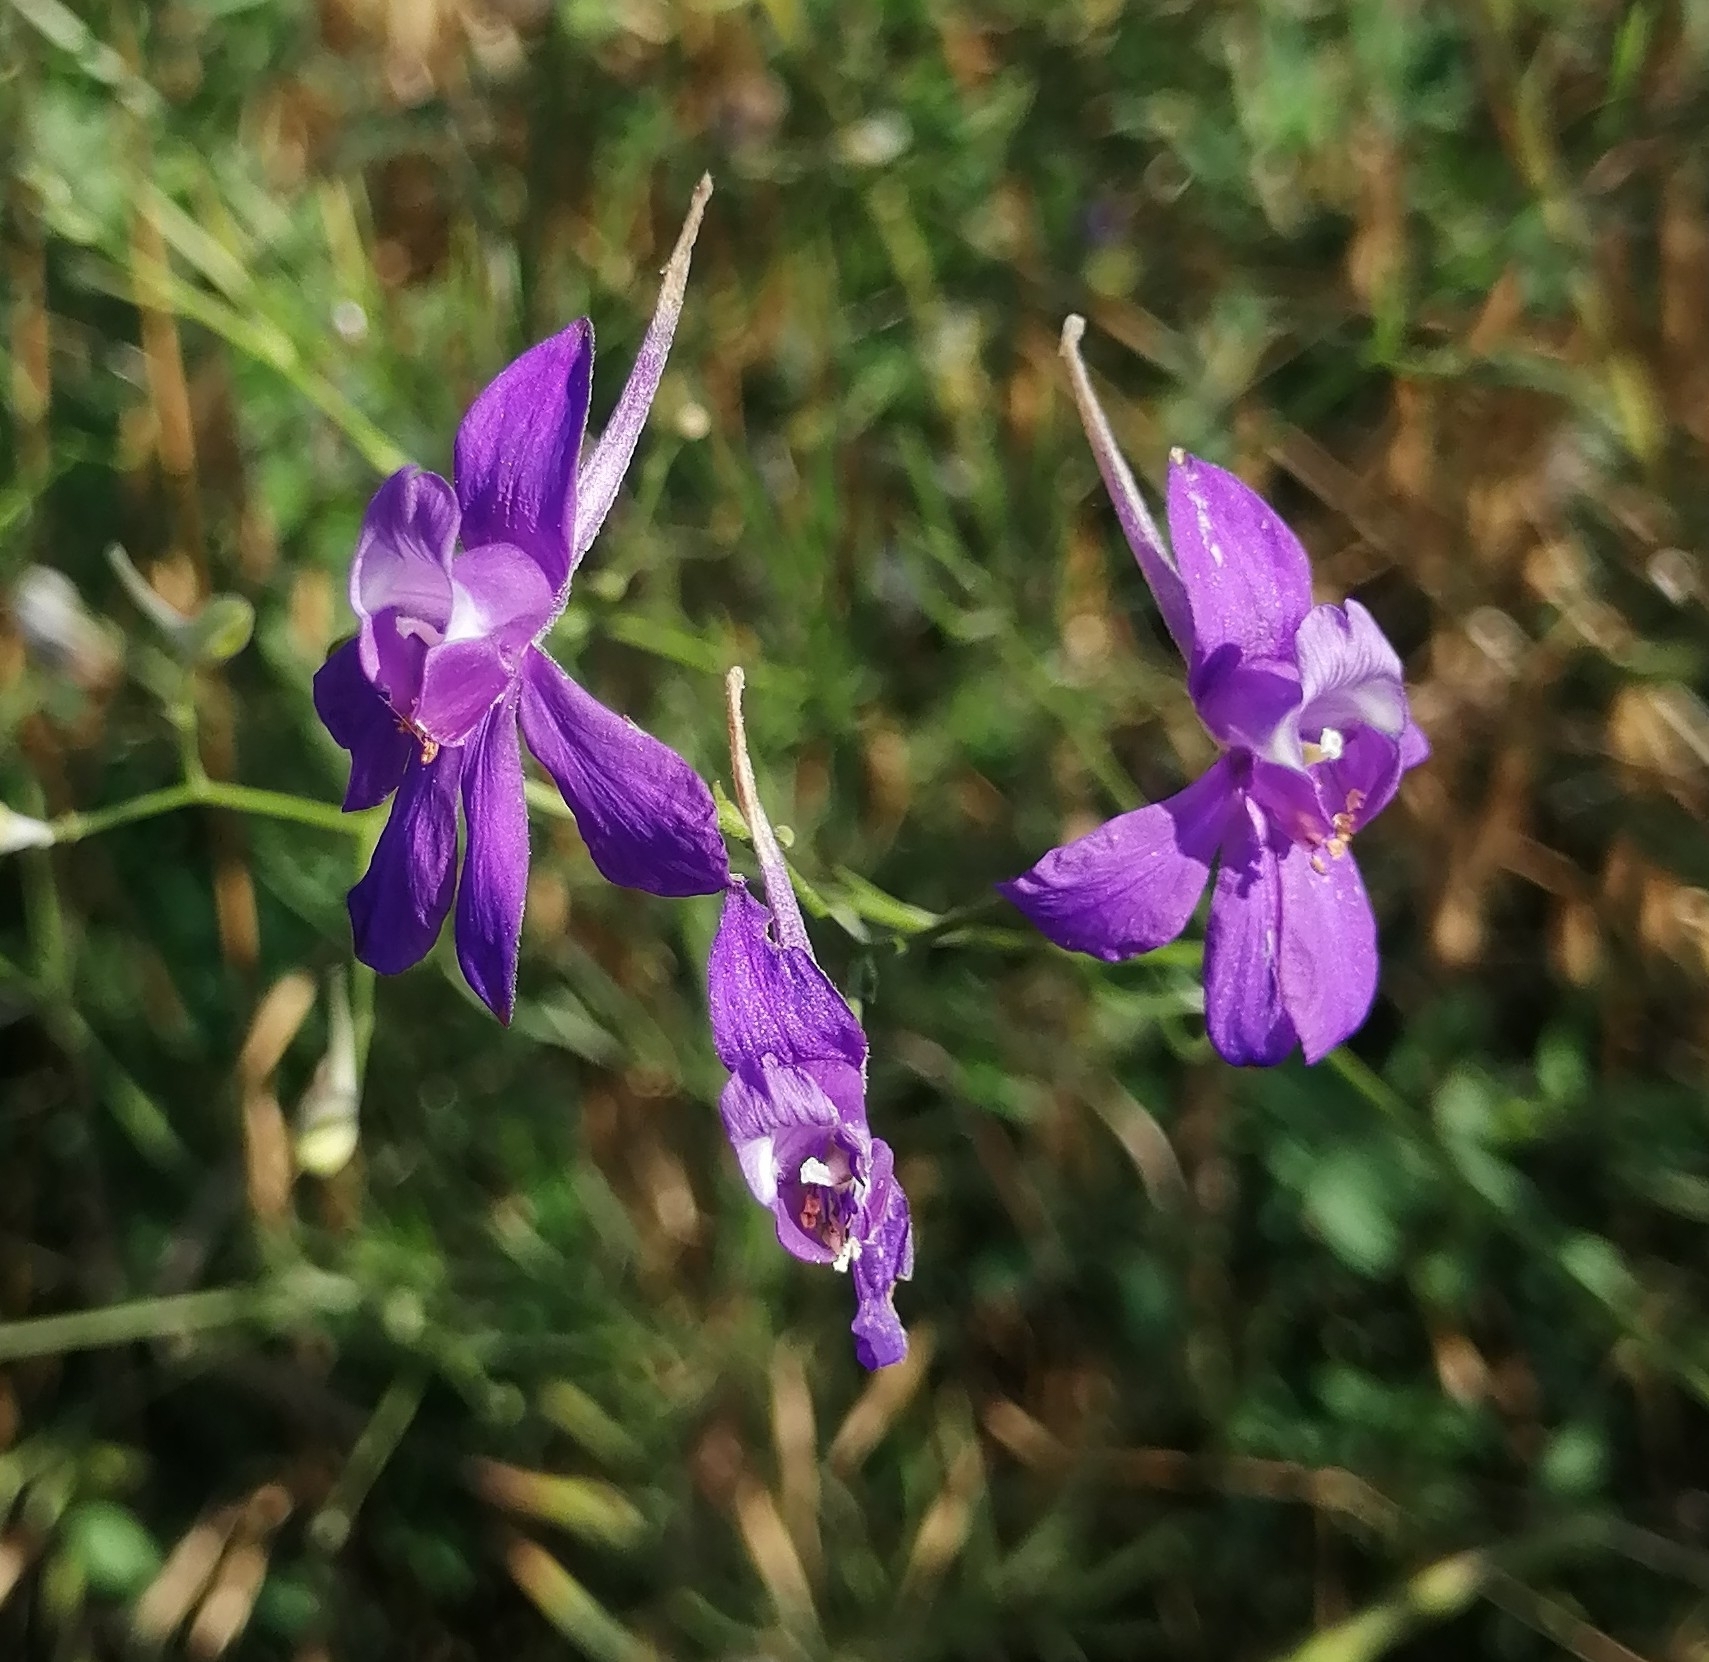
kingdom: Plantae
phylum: Tracheophyta
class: Magnoliopsida
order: Ranunculales
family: Ranunculaceae
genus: Delphinium
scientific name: Delphinium consolida
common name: Branching larkspur
